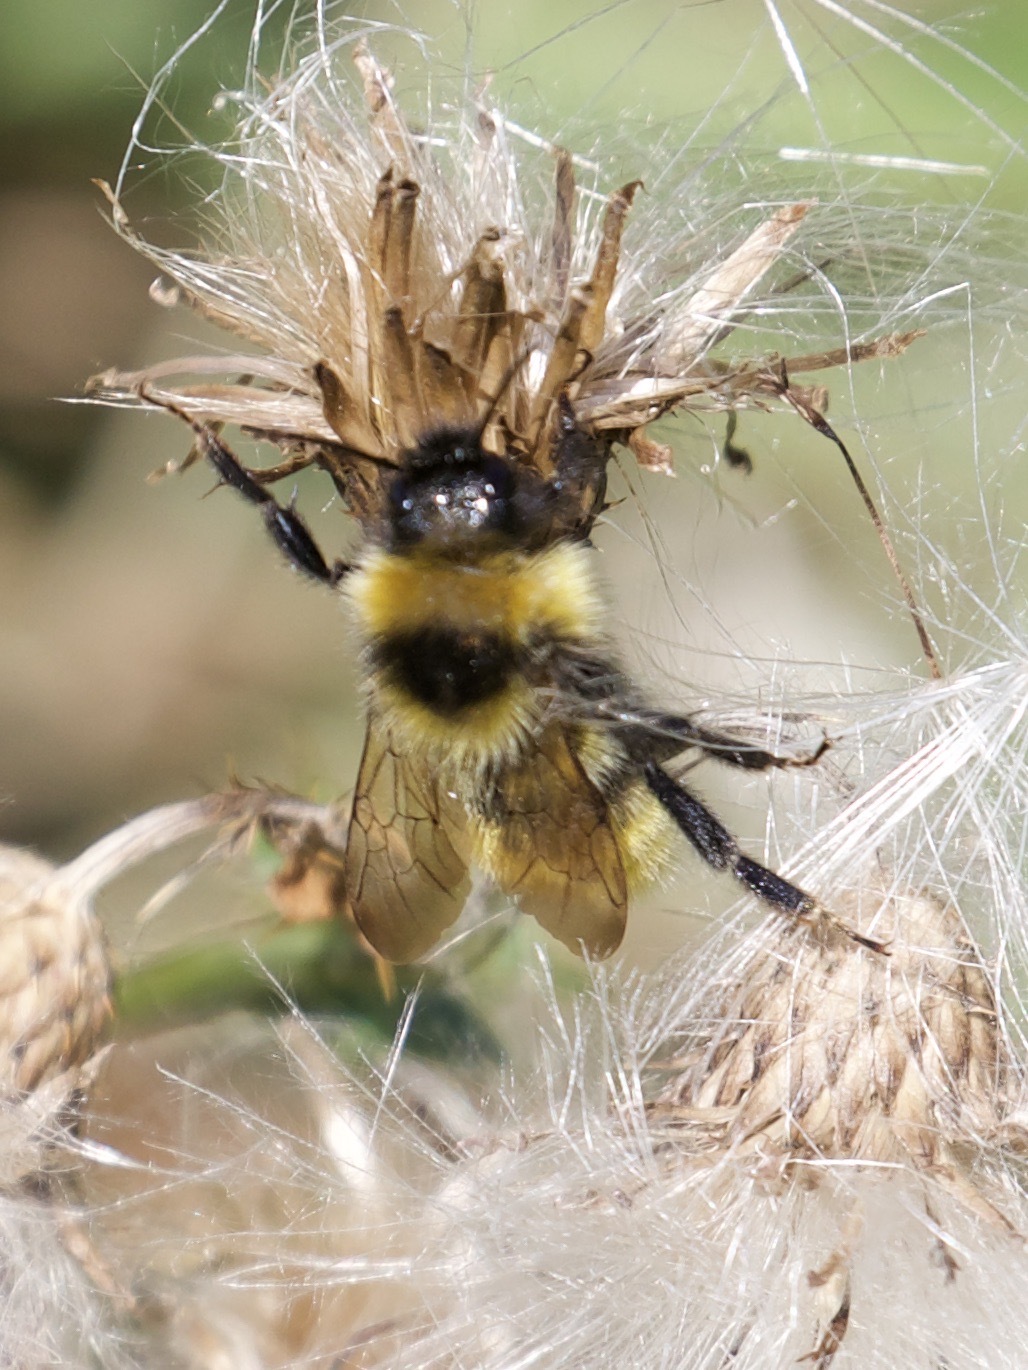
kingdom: Animalia
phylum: Arthropoda
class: Insecta
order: Hymenoptera
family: Apidae
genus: Bombus
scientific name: Bombus campestris
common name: Field cuckoo-bee
